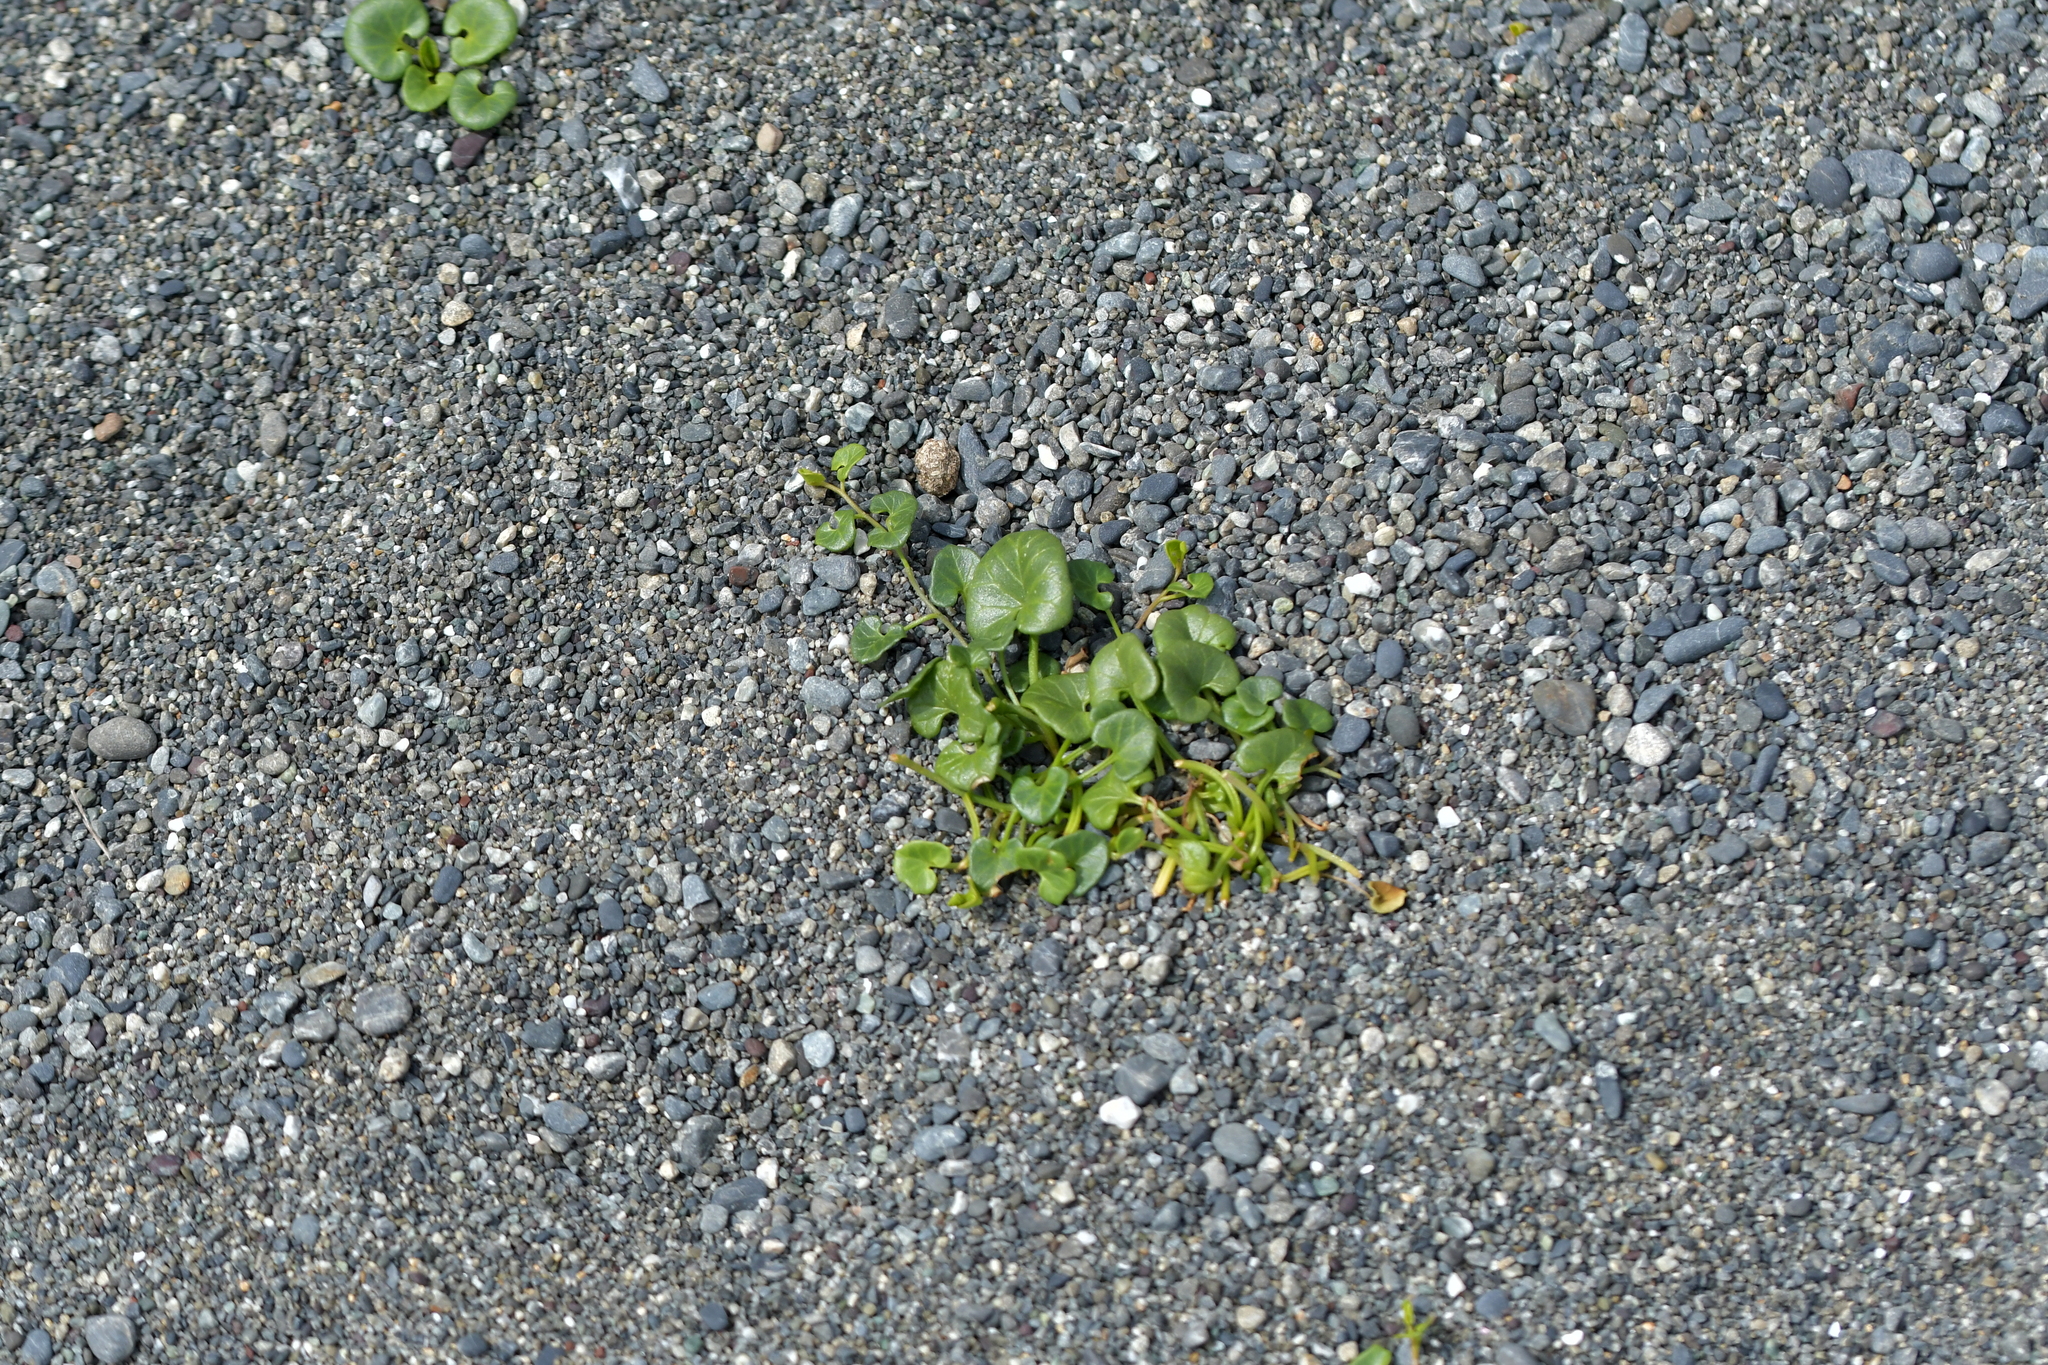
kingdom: Plantae
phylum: Tracheophyta
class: Magnoliopsida
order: Solanales
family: Convolvulaceae
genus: Calystegia
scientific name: Calystegia soldanella
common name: Sea bindweed
